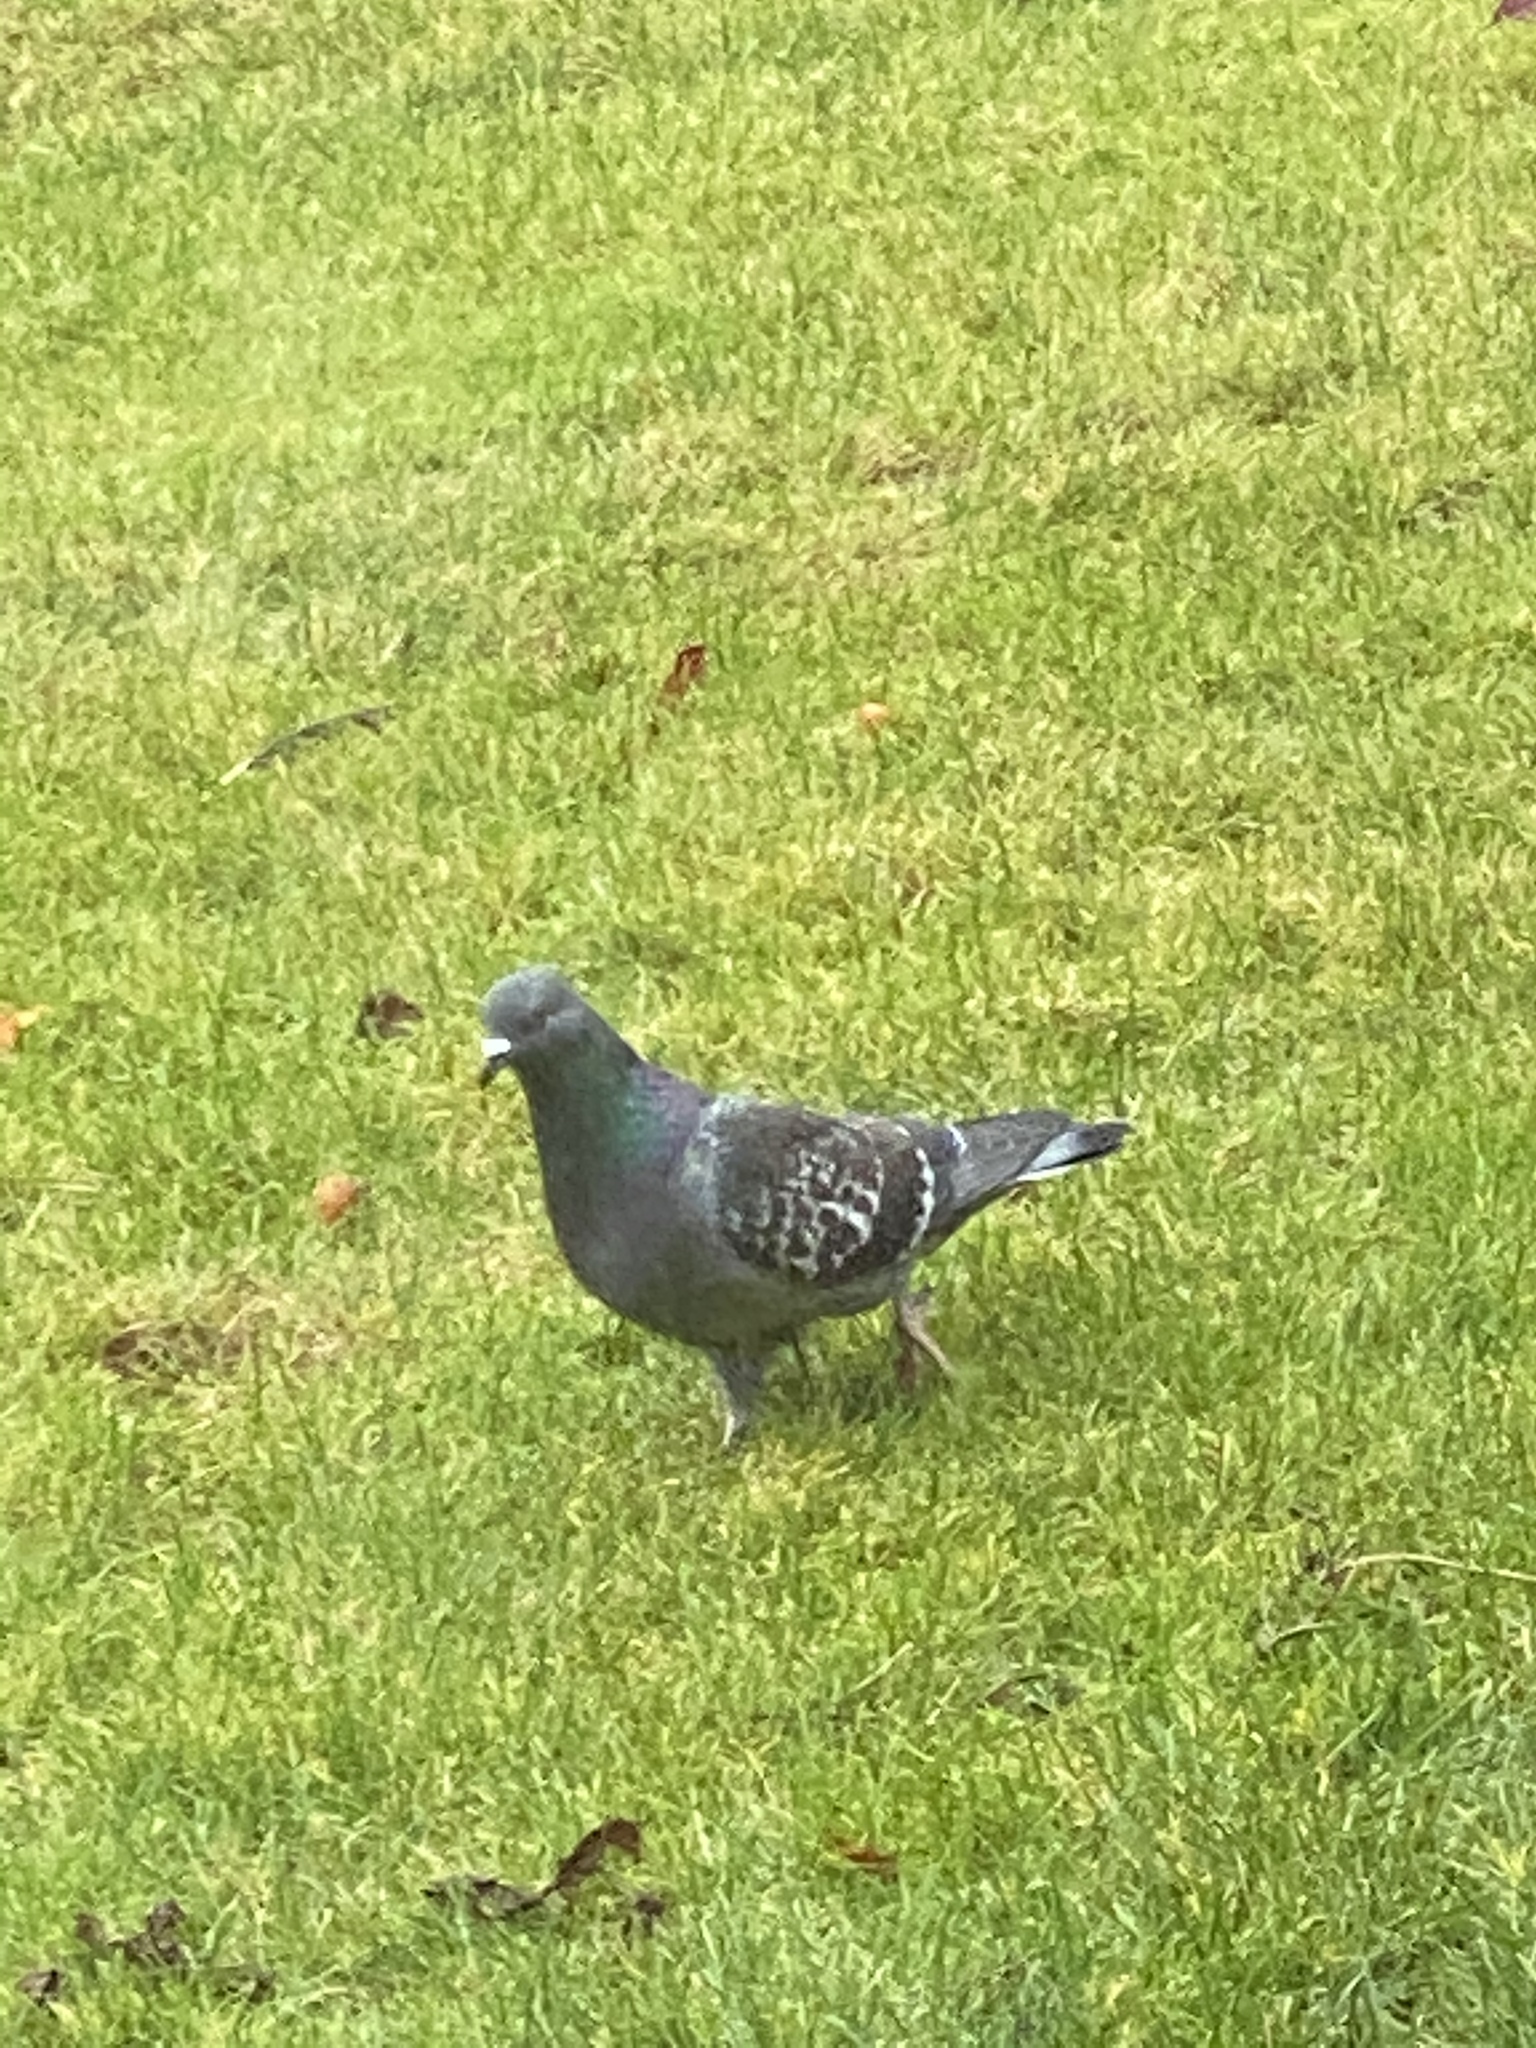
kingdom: Animalia
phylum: Chordata
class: Aves
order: Columbiformes
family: Columbidae
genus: Columba
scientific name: Columba livia
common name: Rock pigeon
